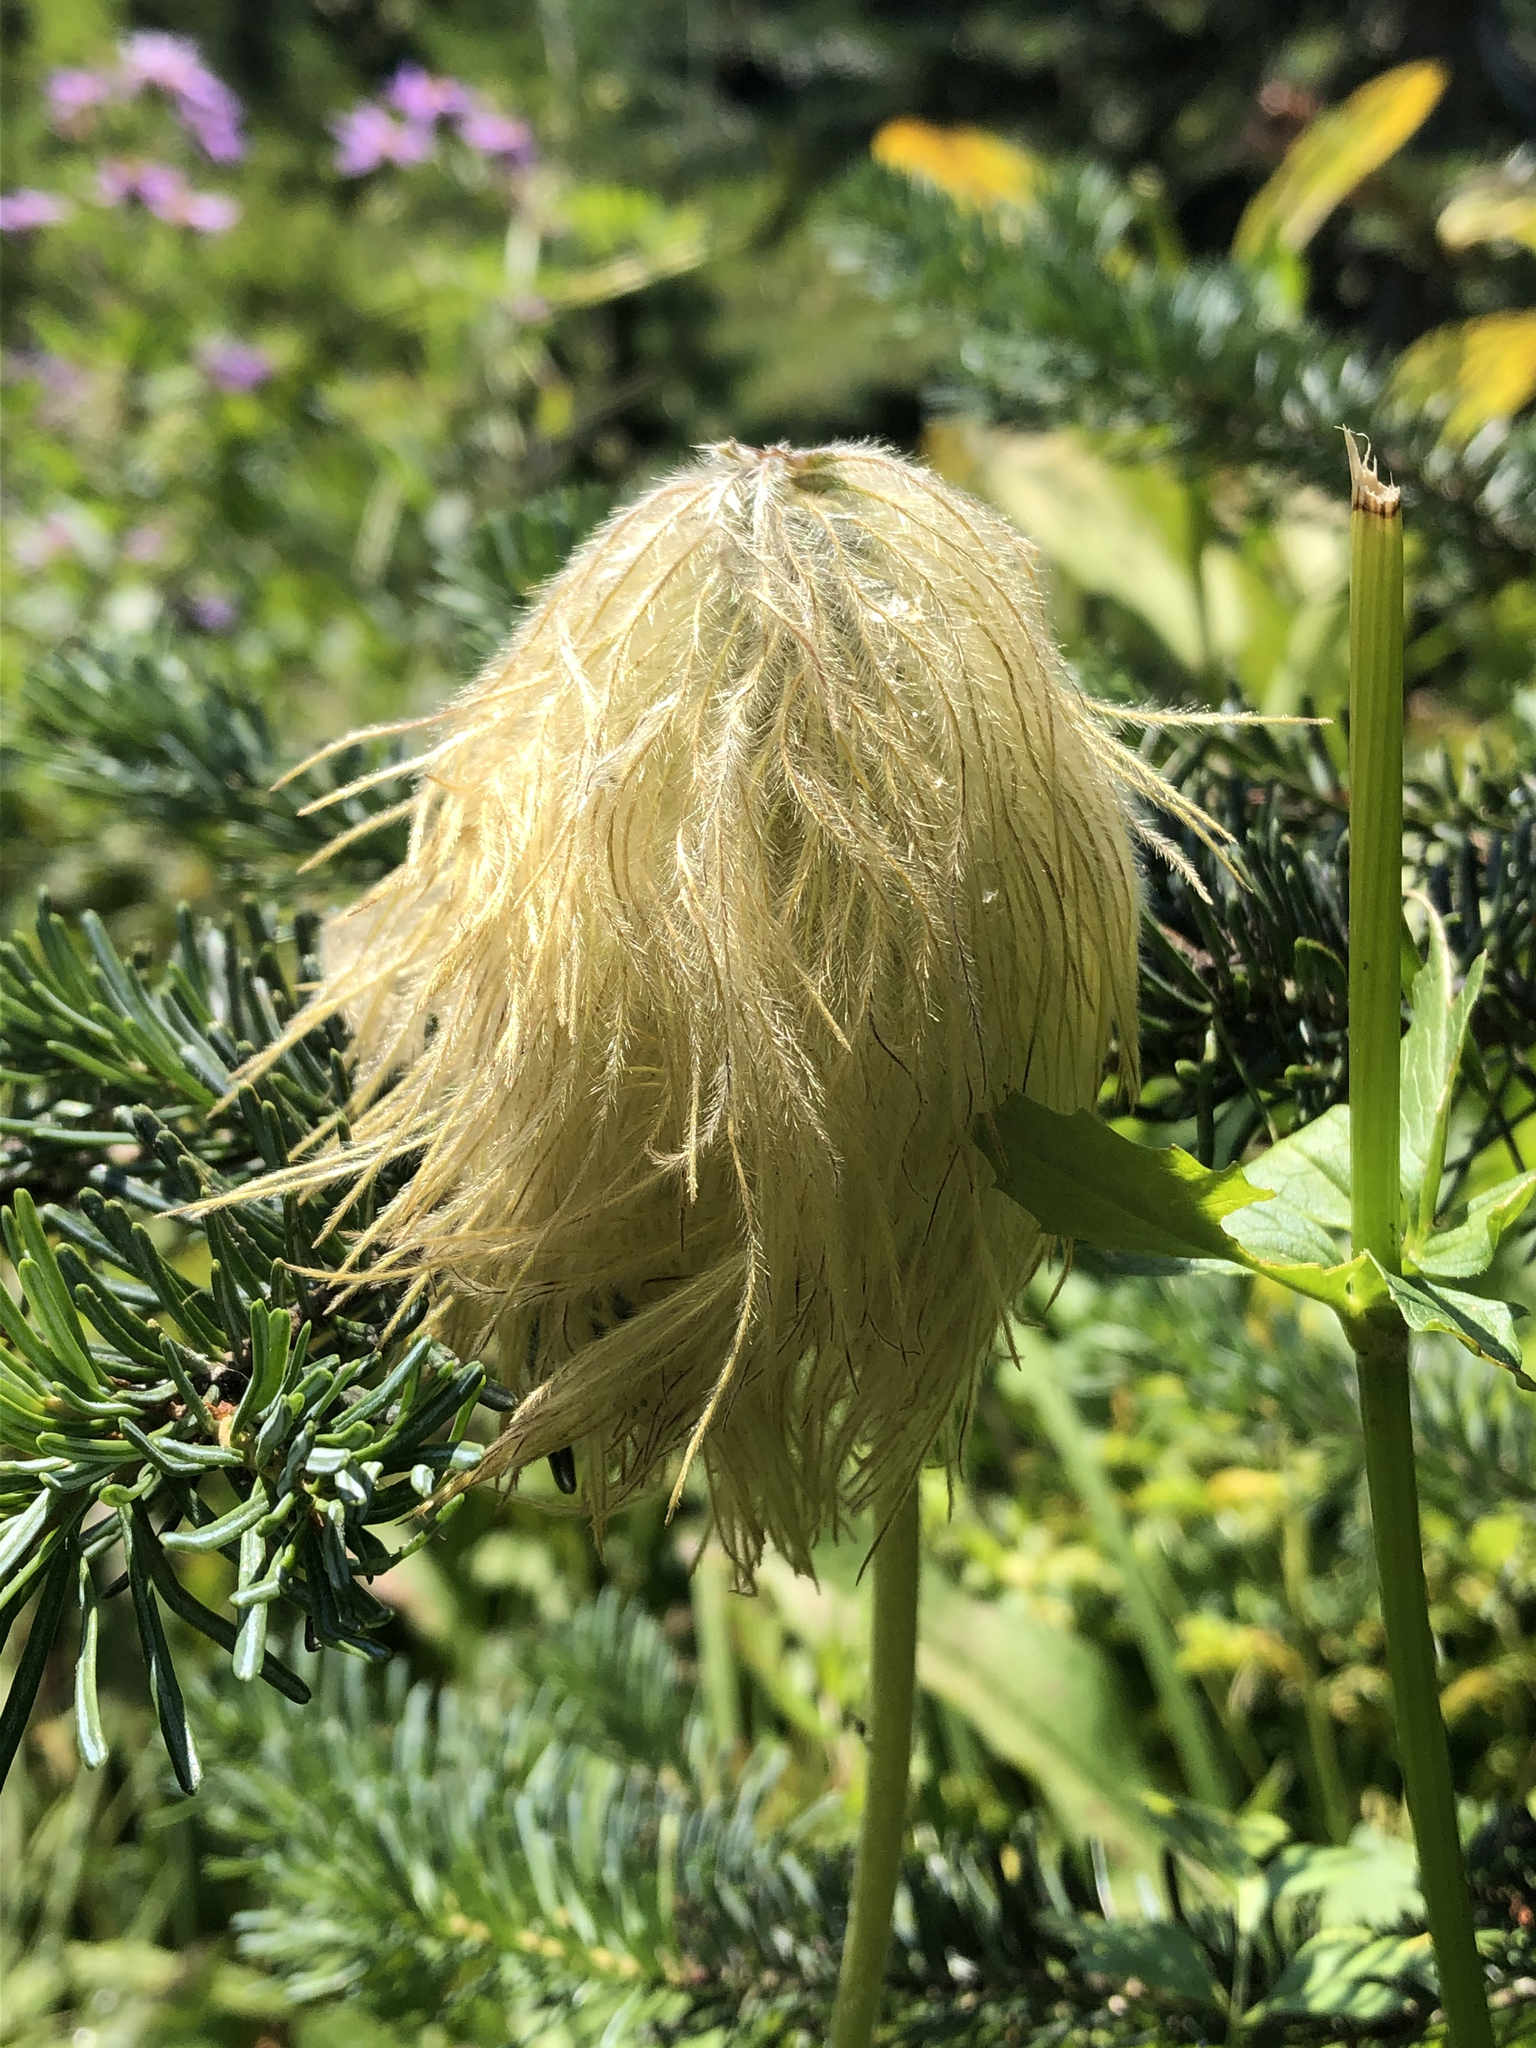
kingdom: Plantae
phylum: Tracheophyta
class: Magnoliopsida
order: Ranunculales
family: Ranunculaceae
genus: Pulsatilla
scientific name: Pulsatilla occidentalis
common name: Mountain pasqueflower
